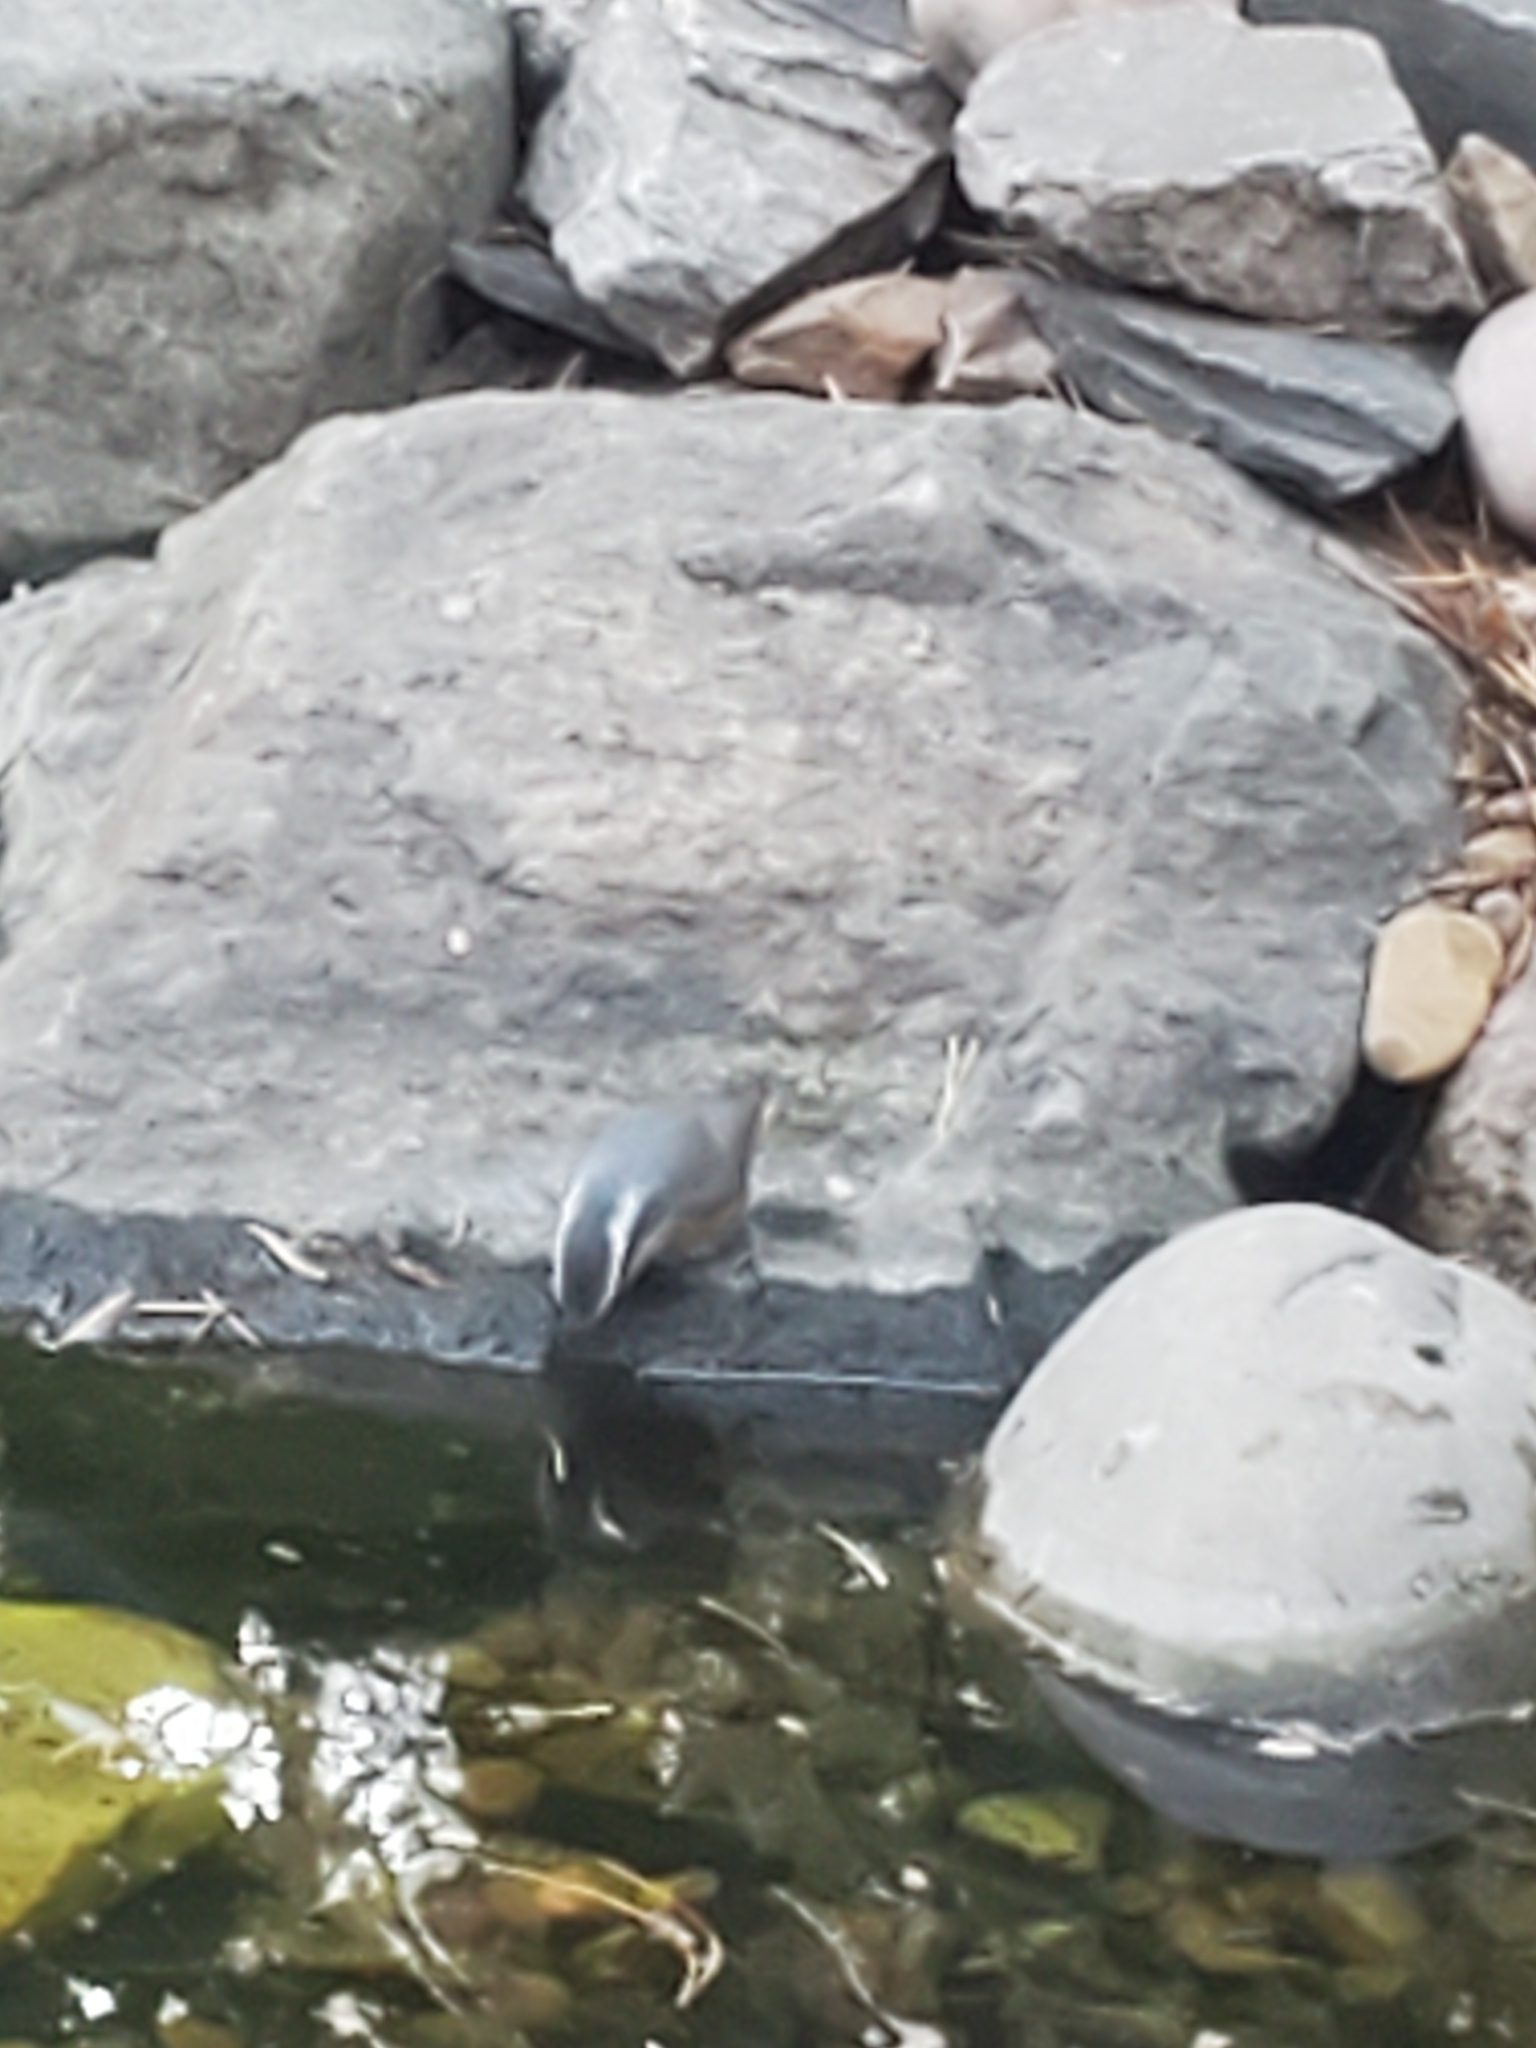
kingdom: Animalia
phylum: Chordata
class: Aves
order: Passeriformes
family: Sittidae
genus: Sitta
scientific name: Sitta canadensis
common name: Red-breasted nuthatch
